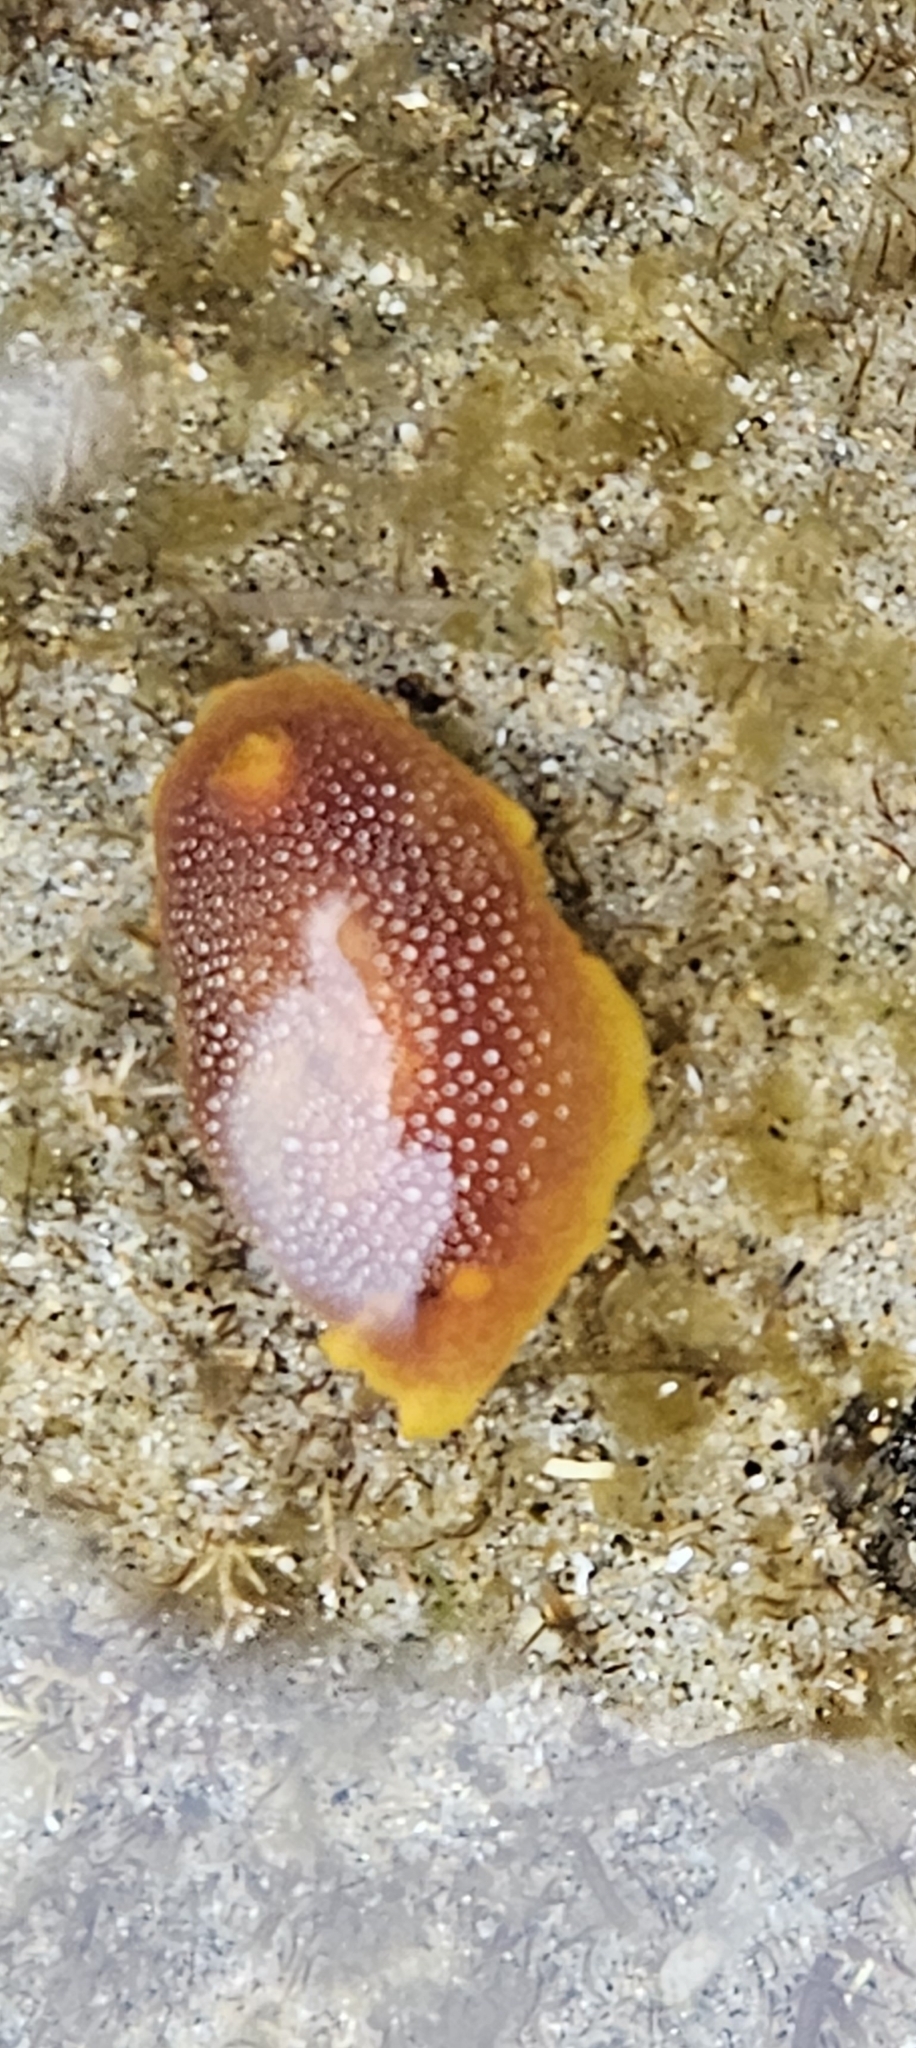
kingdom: Animalia
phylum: Mollusca
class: Gastropoda
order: Nudibranchia
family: Dendrodorididae
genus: Doriopsilla
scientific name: Doriopsilla gemela
